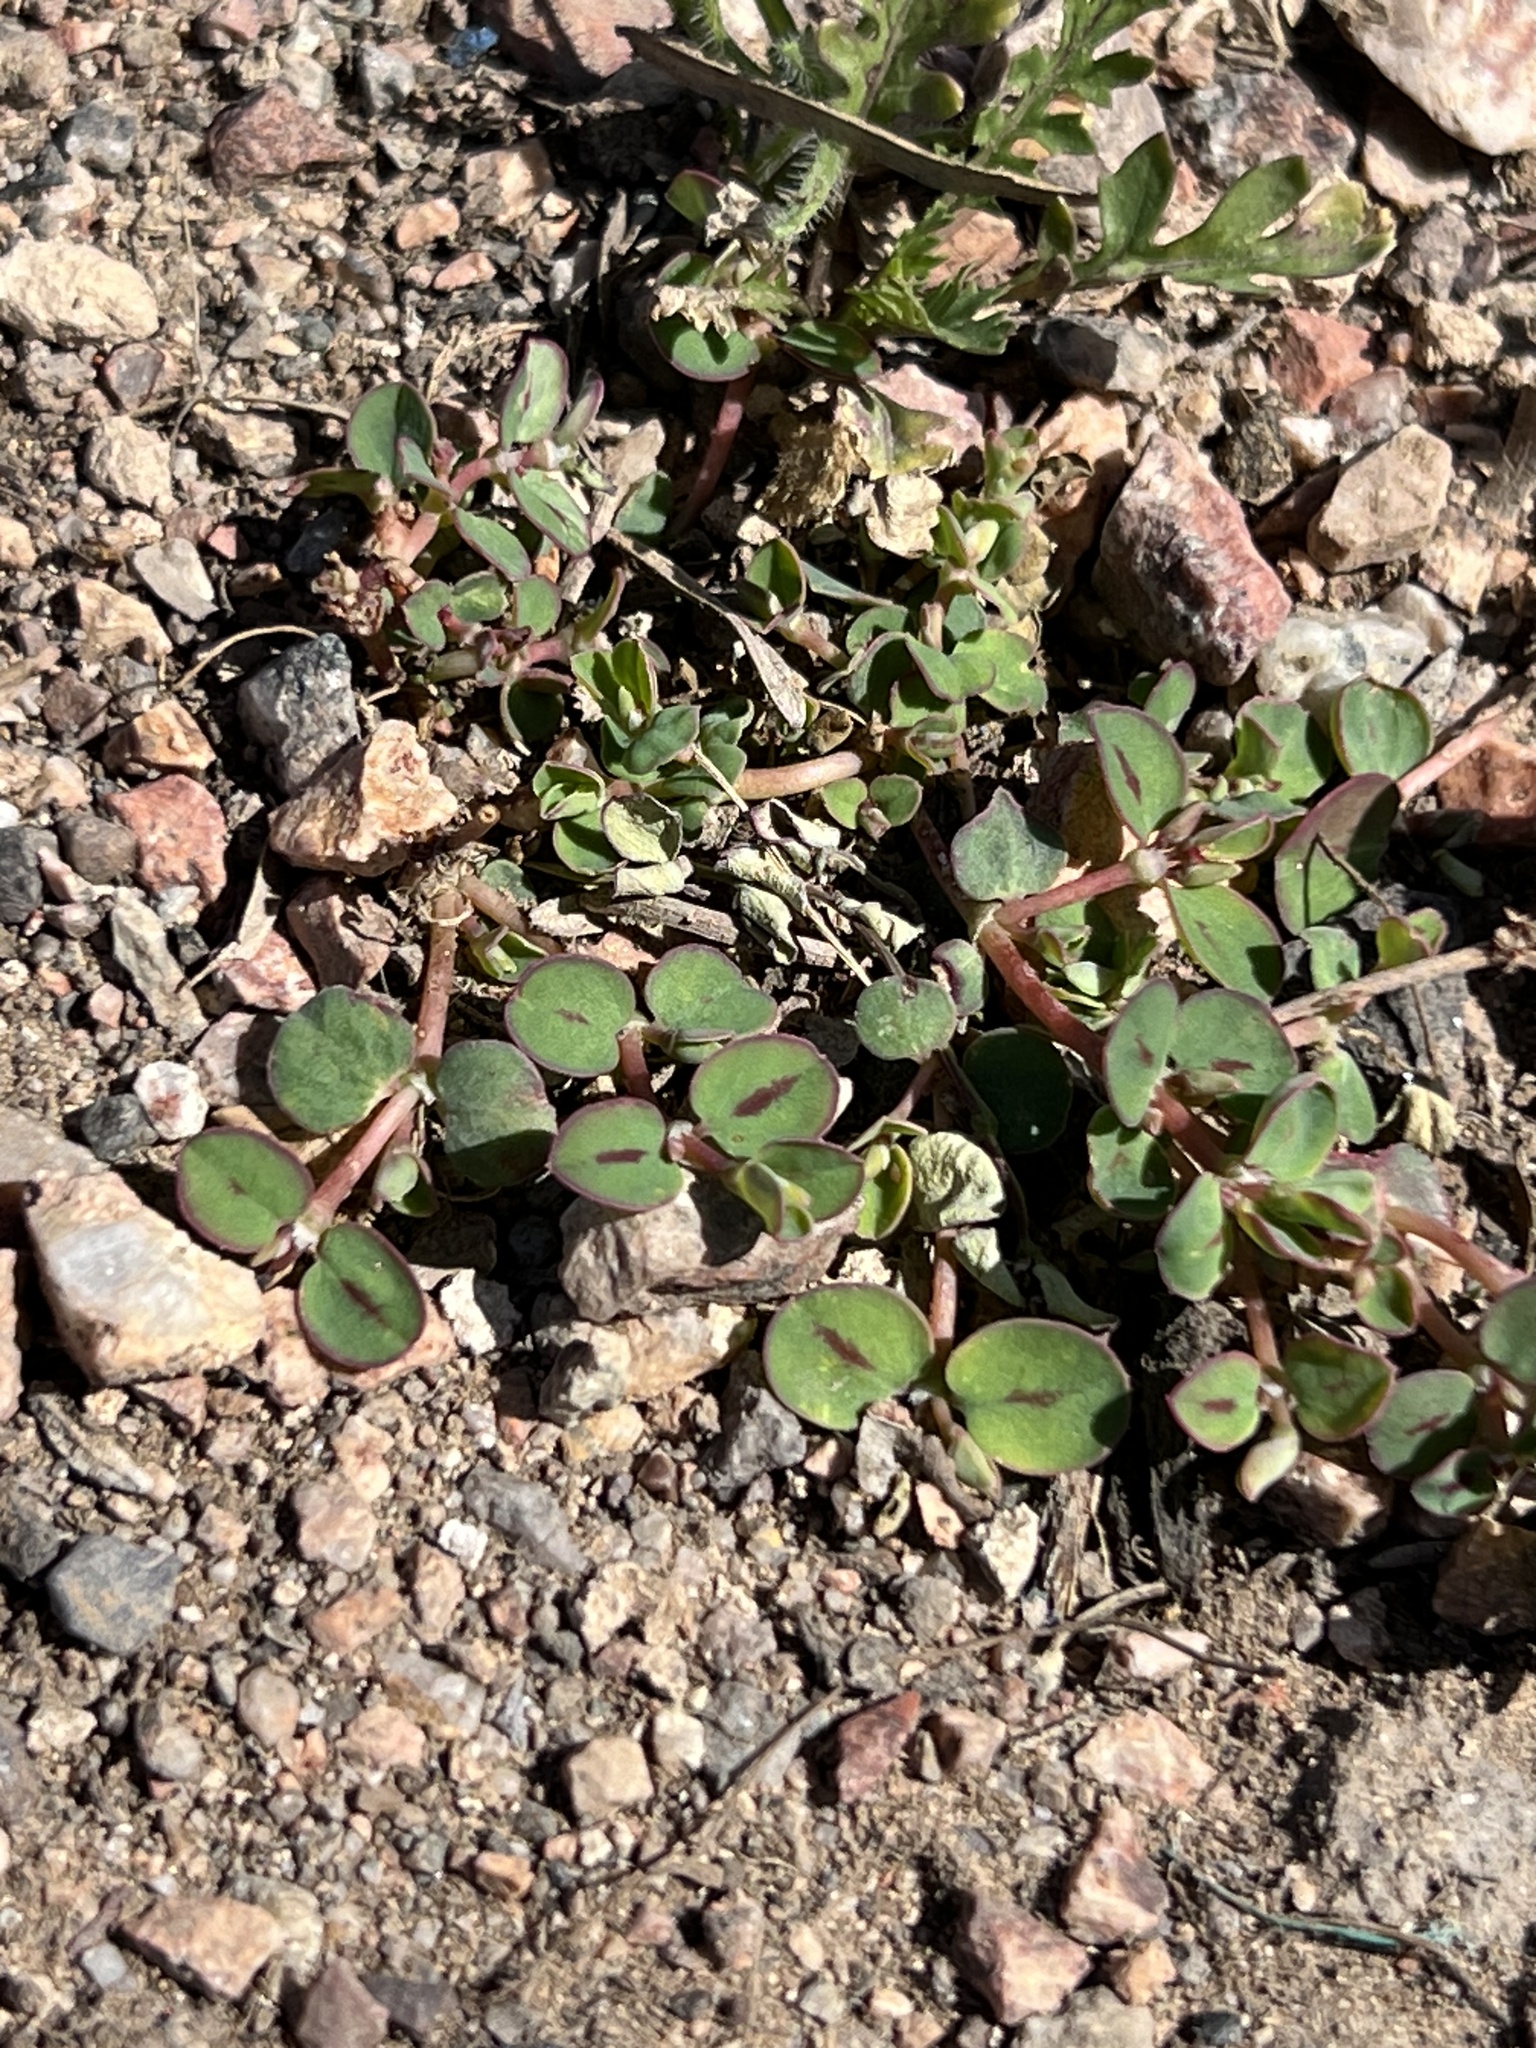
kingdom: Plantae
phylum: Tracheophyta
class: Magnoliopsida
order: Malpighiales
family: Euphorbiaceae
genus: Euphorbia
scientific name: Euphorbia albomarginata
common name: Whitemargin sandmat
